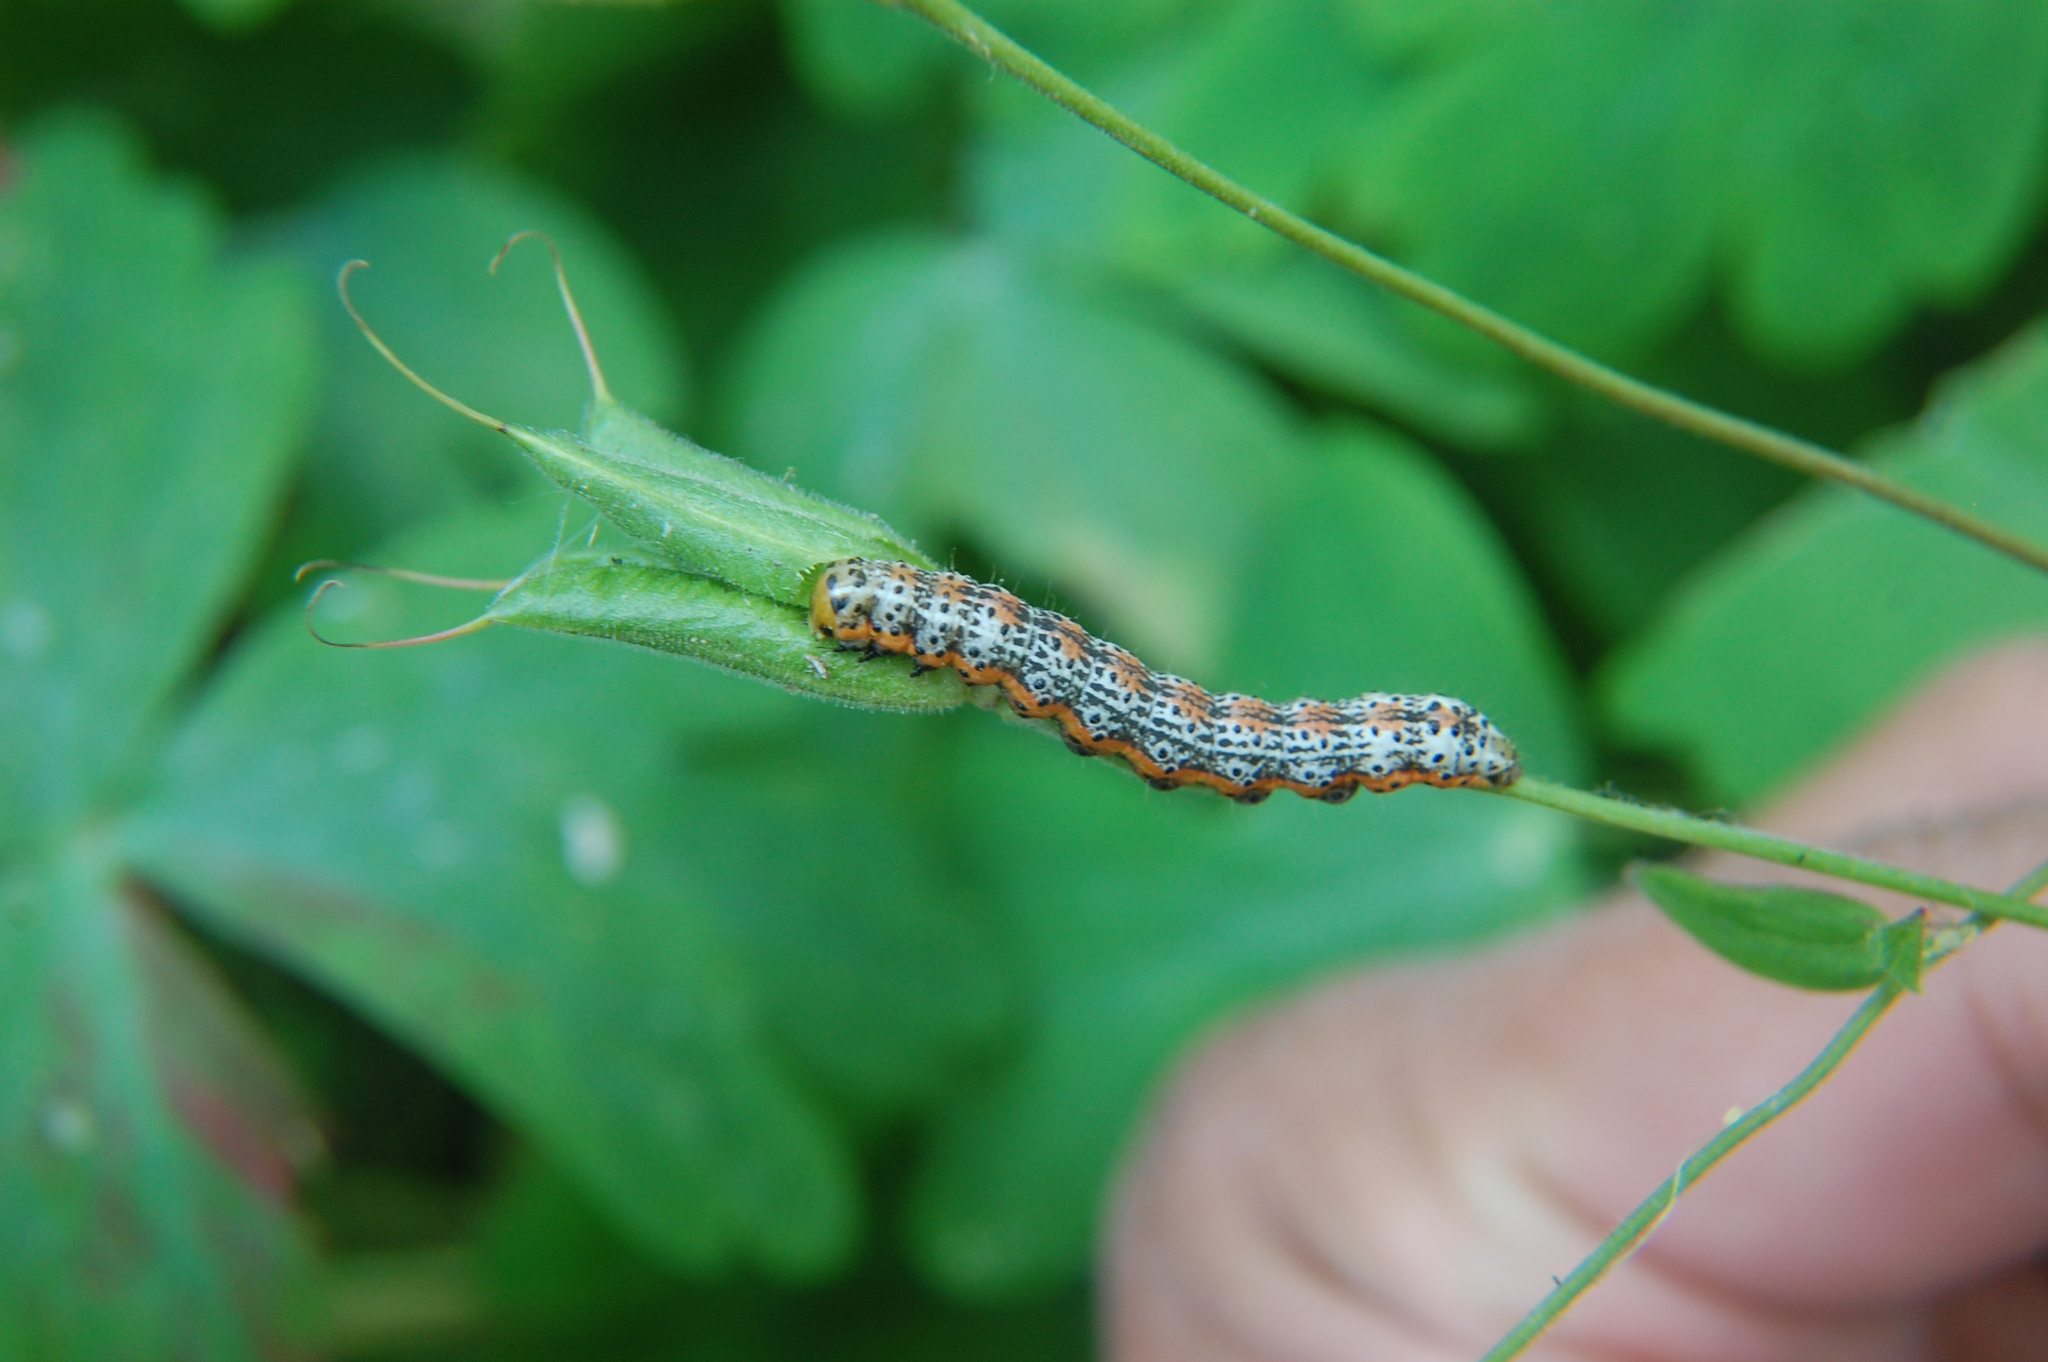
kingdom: Animalia
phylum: Arthropoda
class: Insecta
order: Lepidoptera
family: Noctuidae
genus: Pyrrhia
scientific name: Pyrrhia exprimens
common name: Purple-lined sallow
